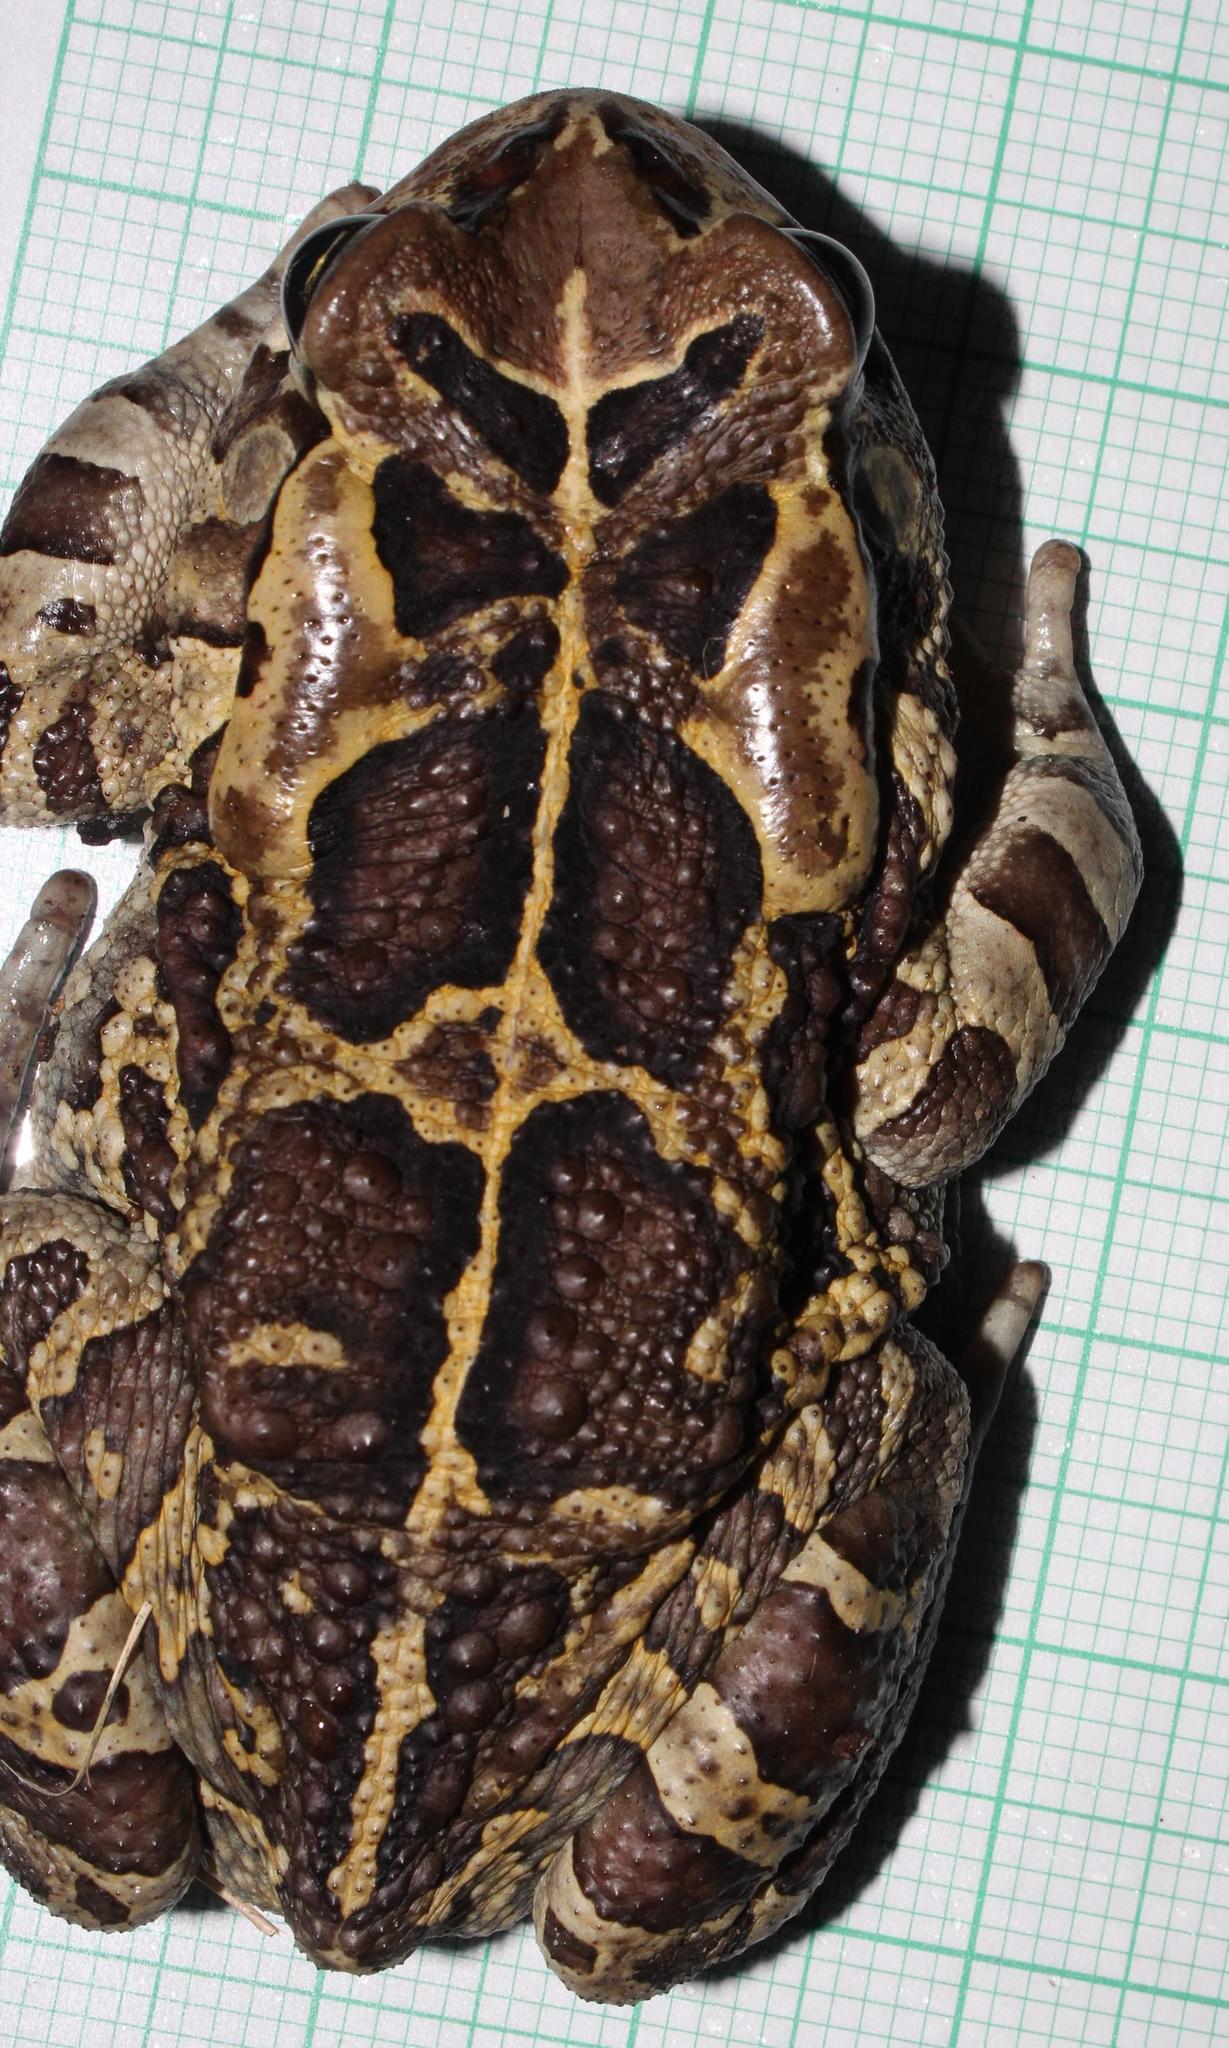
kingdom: Animalia
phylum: Chordata
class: Amphibia
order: Anura
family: Bufonidae
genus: Sclerophrys
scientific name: Sclerophrys pantherina
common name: Panther toad
